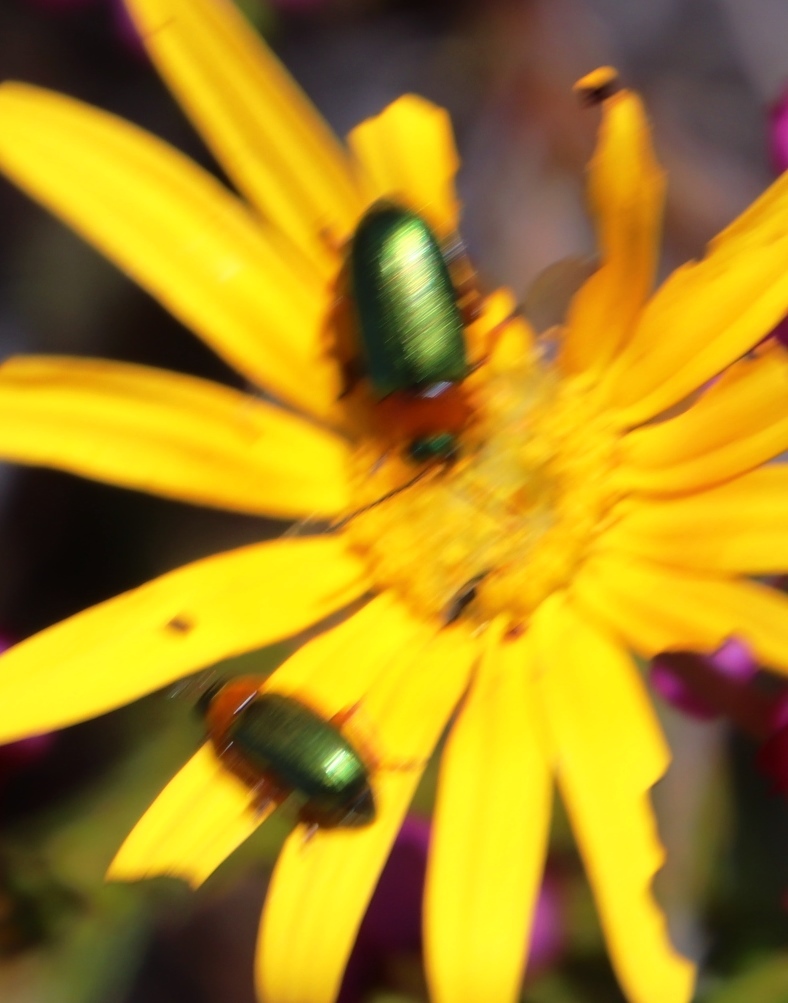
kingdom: Animalia
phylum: Arthropoda
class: Insecta
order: Coleoptera
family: Chrysomelidae
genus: Palaeophylia
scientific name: Palaeophylia
